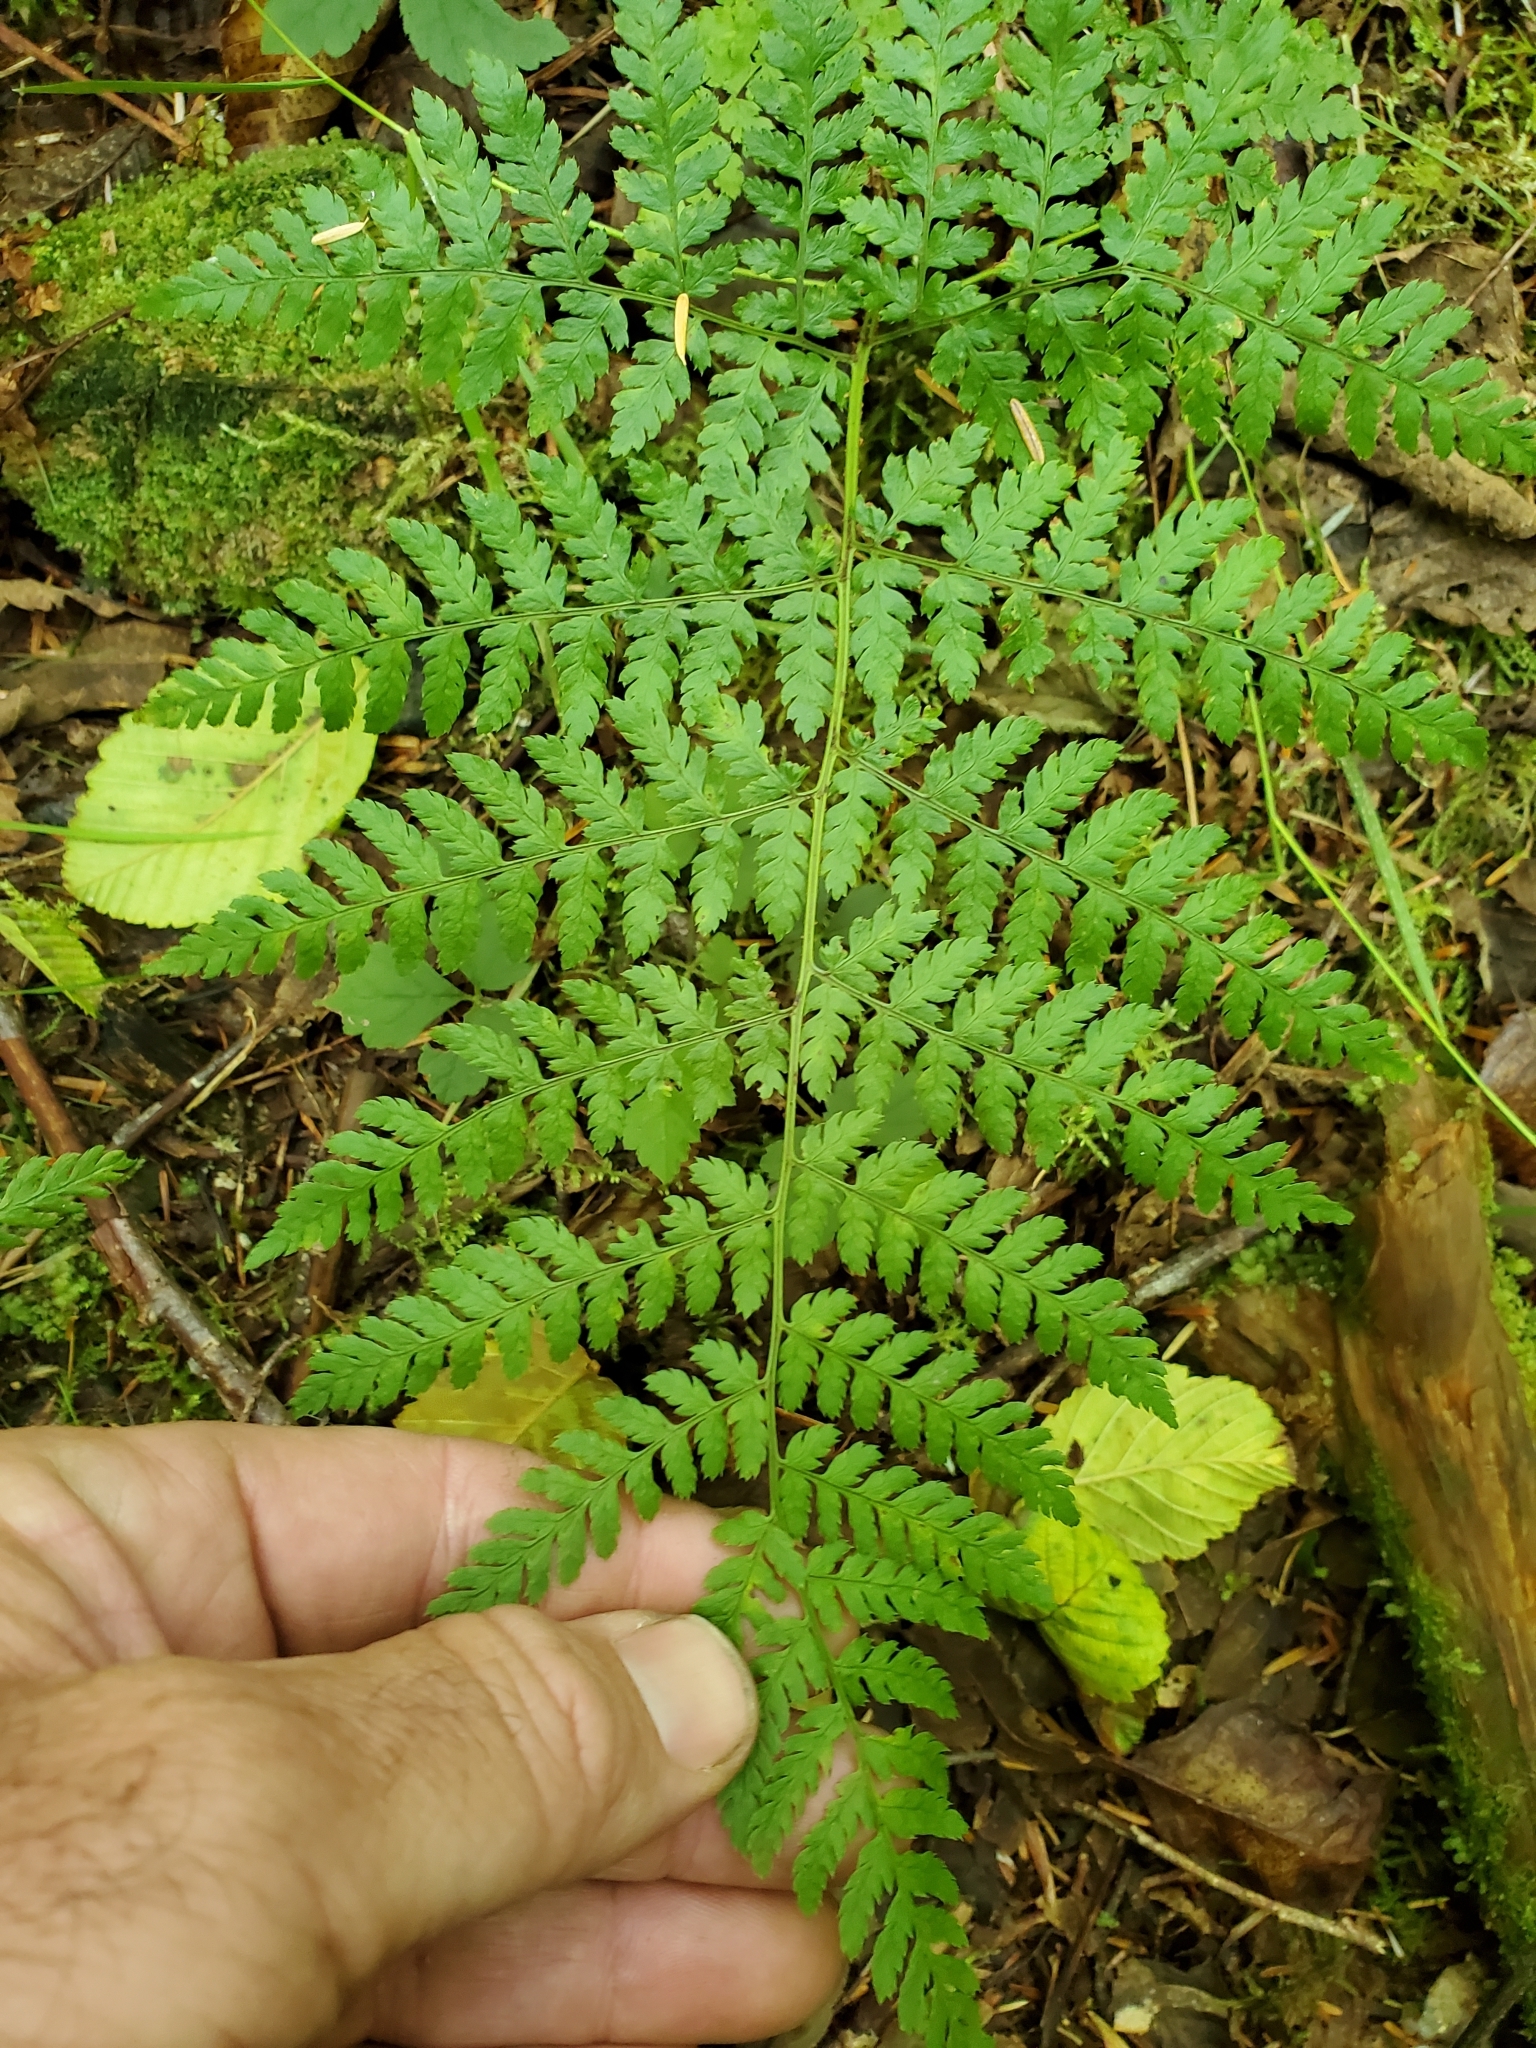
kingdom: Plantae
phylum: Tracheophyta
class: Polypodiopsida
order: Polypodiales
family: Dryopteridaceae
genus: Dryopteris
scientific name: Dryopteris expansa
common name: Northern buckler fern
